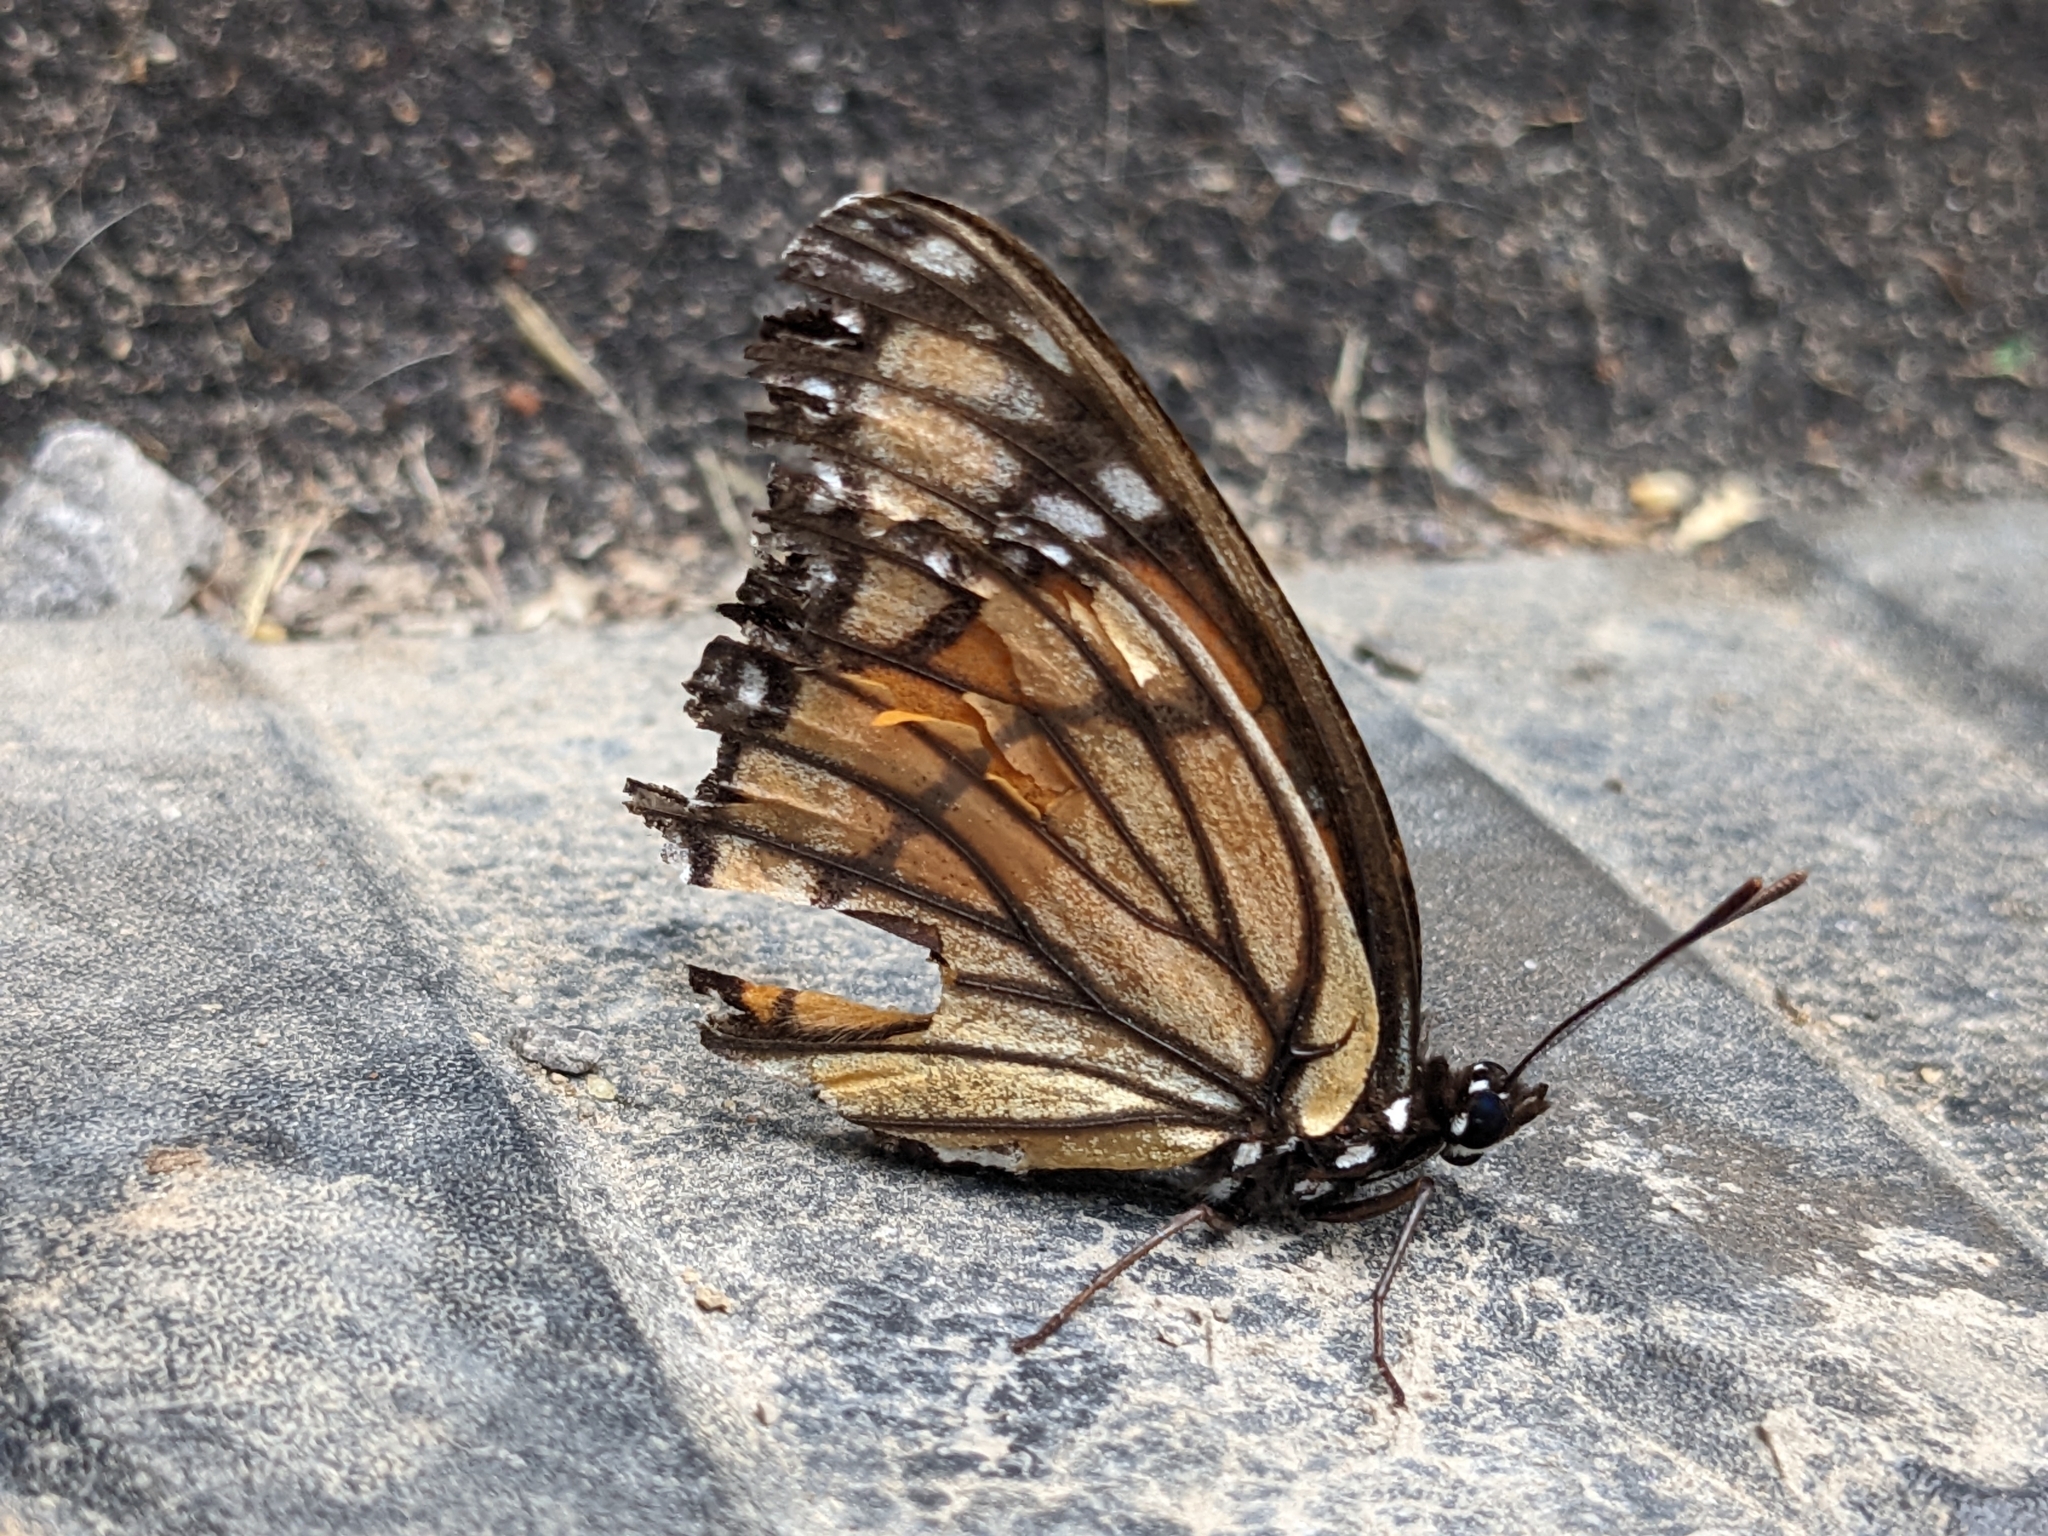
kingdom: Animalia
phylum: Arthropoda
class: Insecta
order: Lepidoptera
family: Nymphalidae
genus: Limenitis
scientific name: Limenitis archippus
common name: Viceroy
